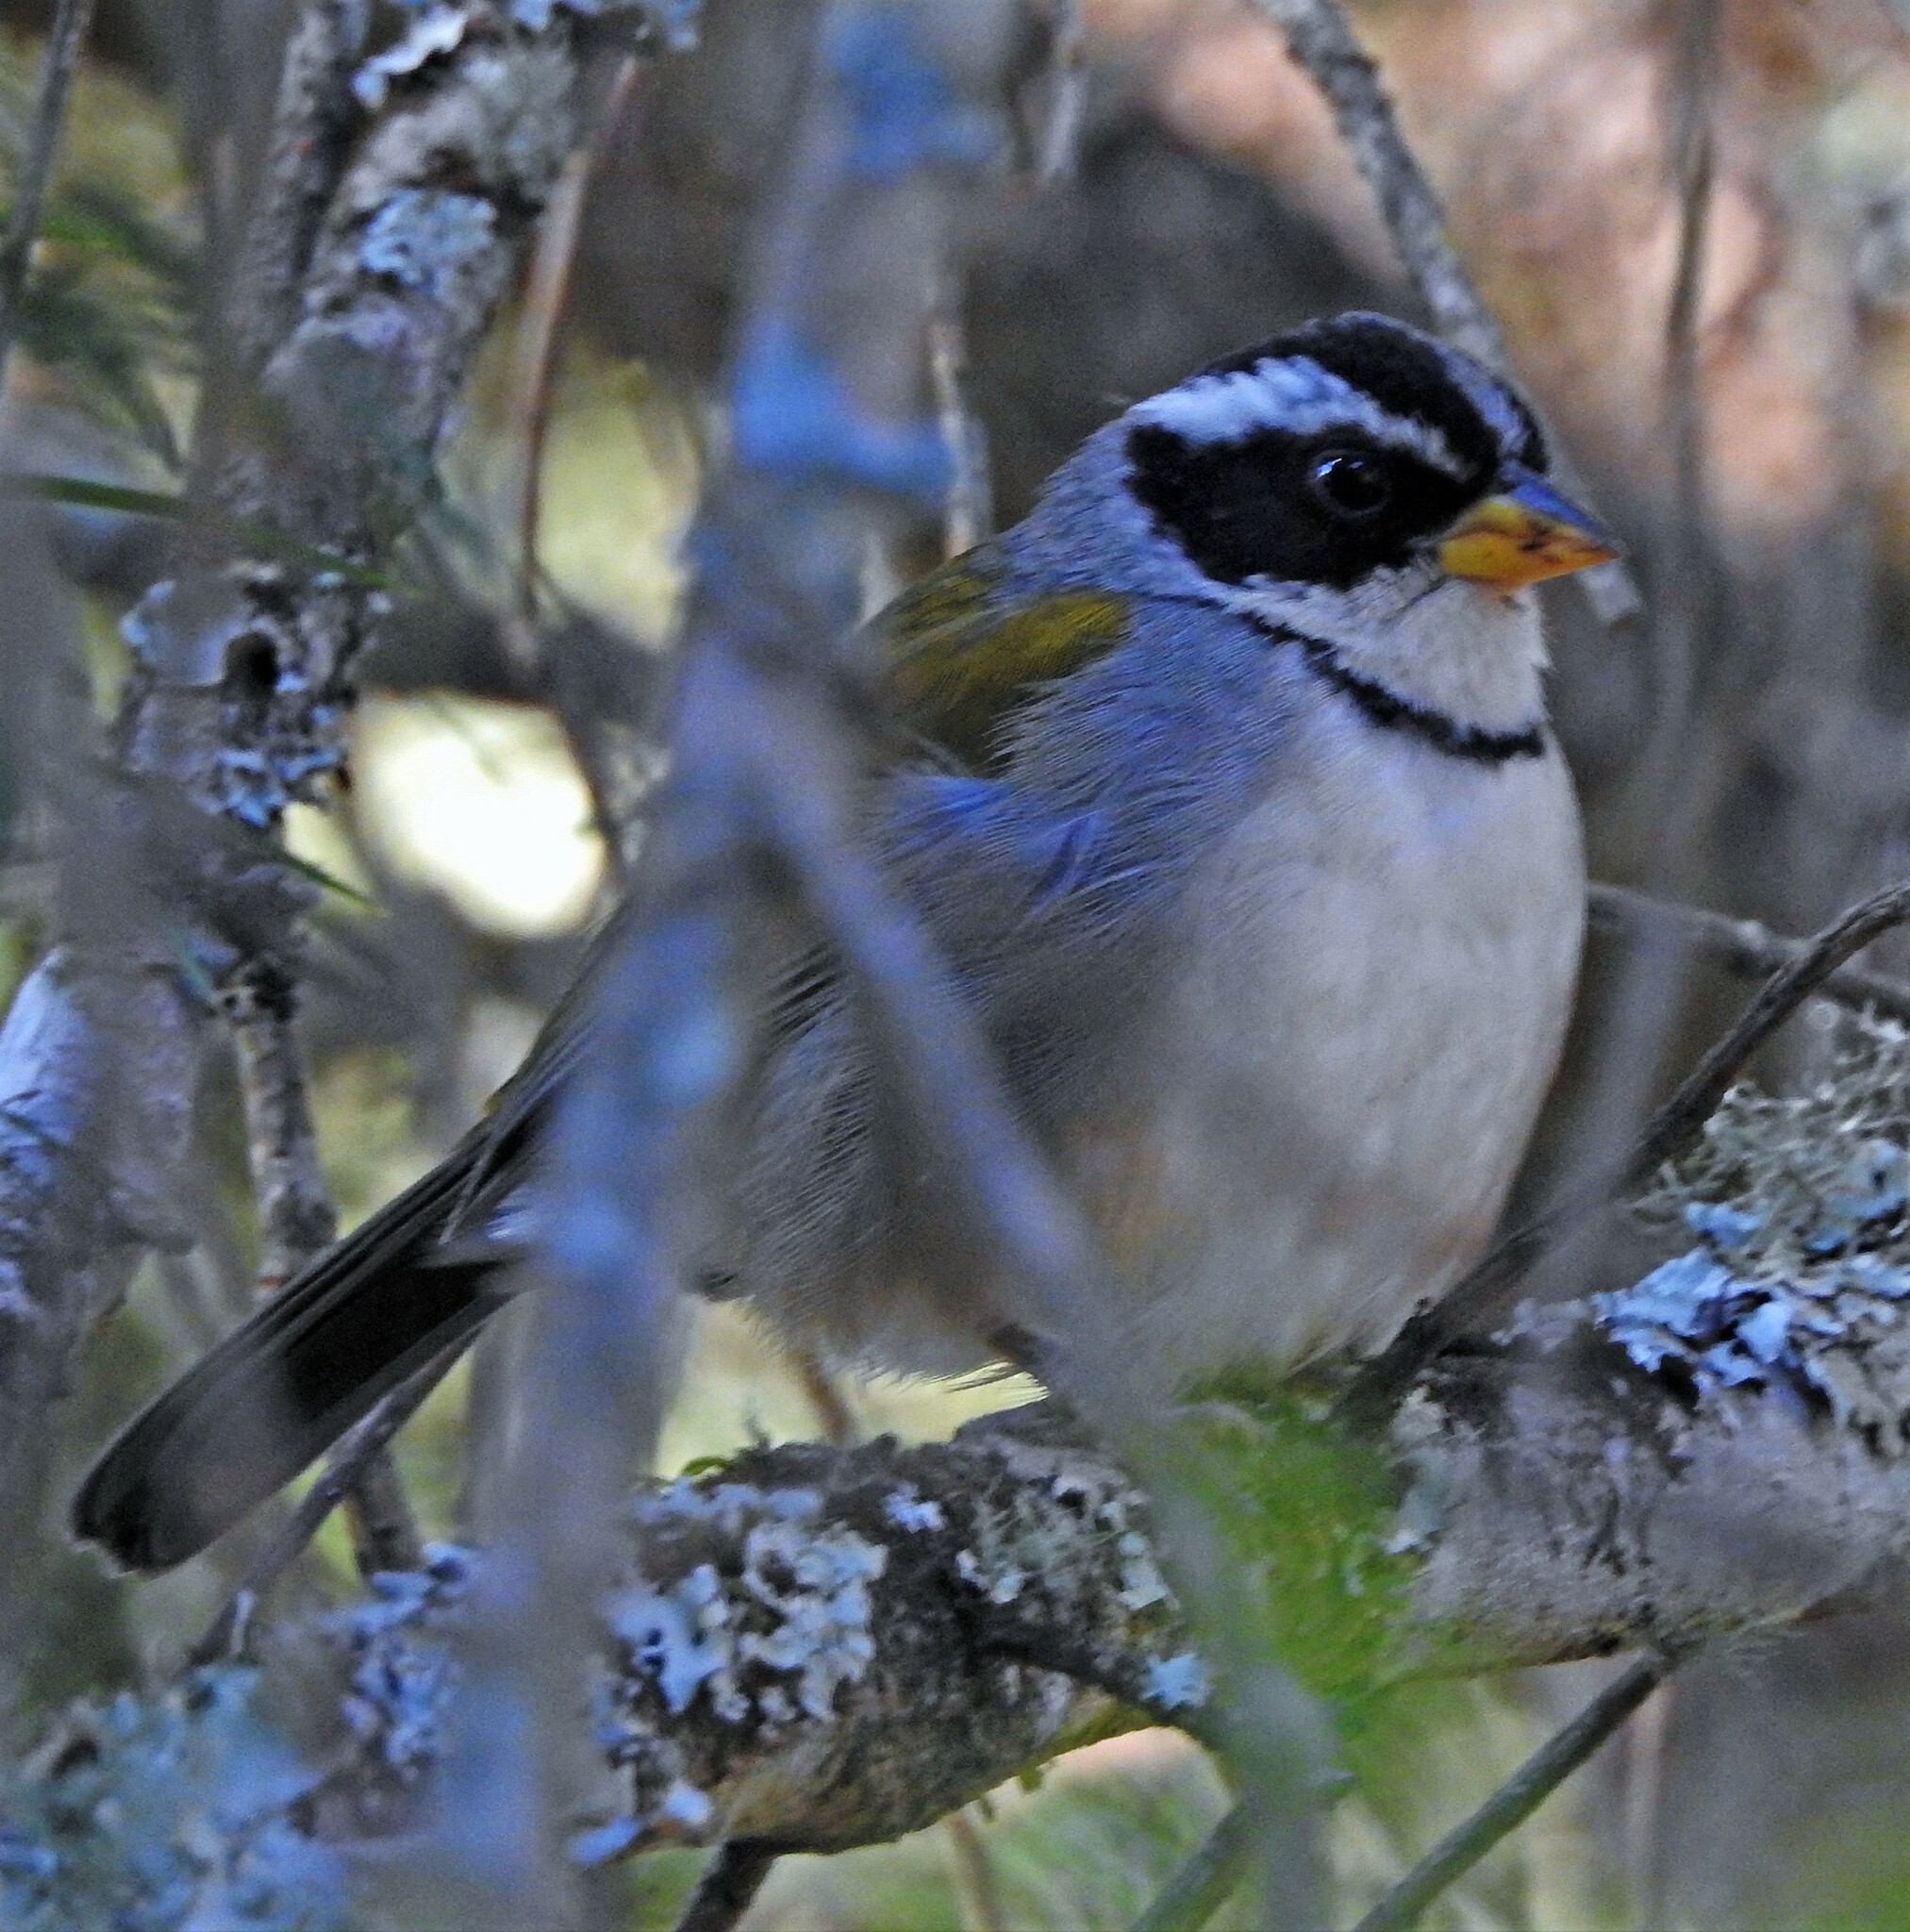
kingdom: Animalia
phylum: Chordata
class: Aves
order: Passeriformes
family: Passerellidae
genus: Arremon
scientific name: Arremon dorbignii
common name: Moss-backed sparrow
